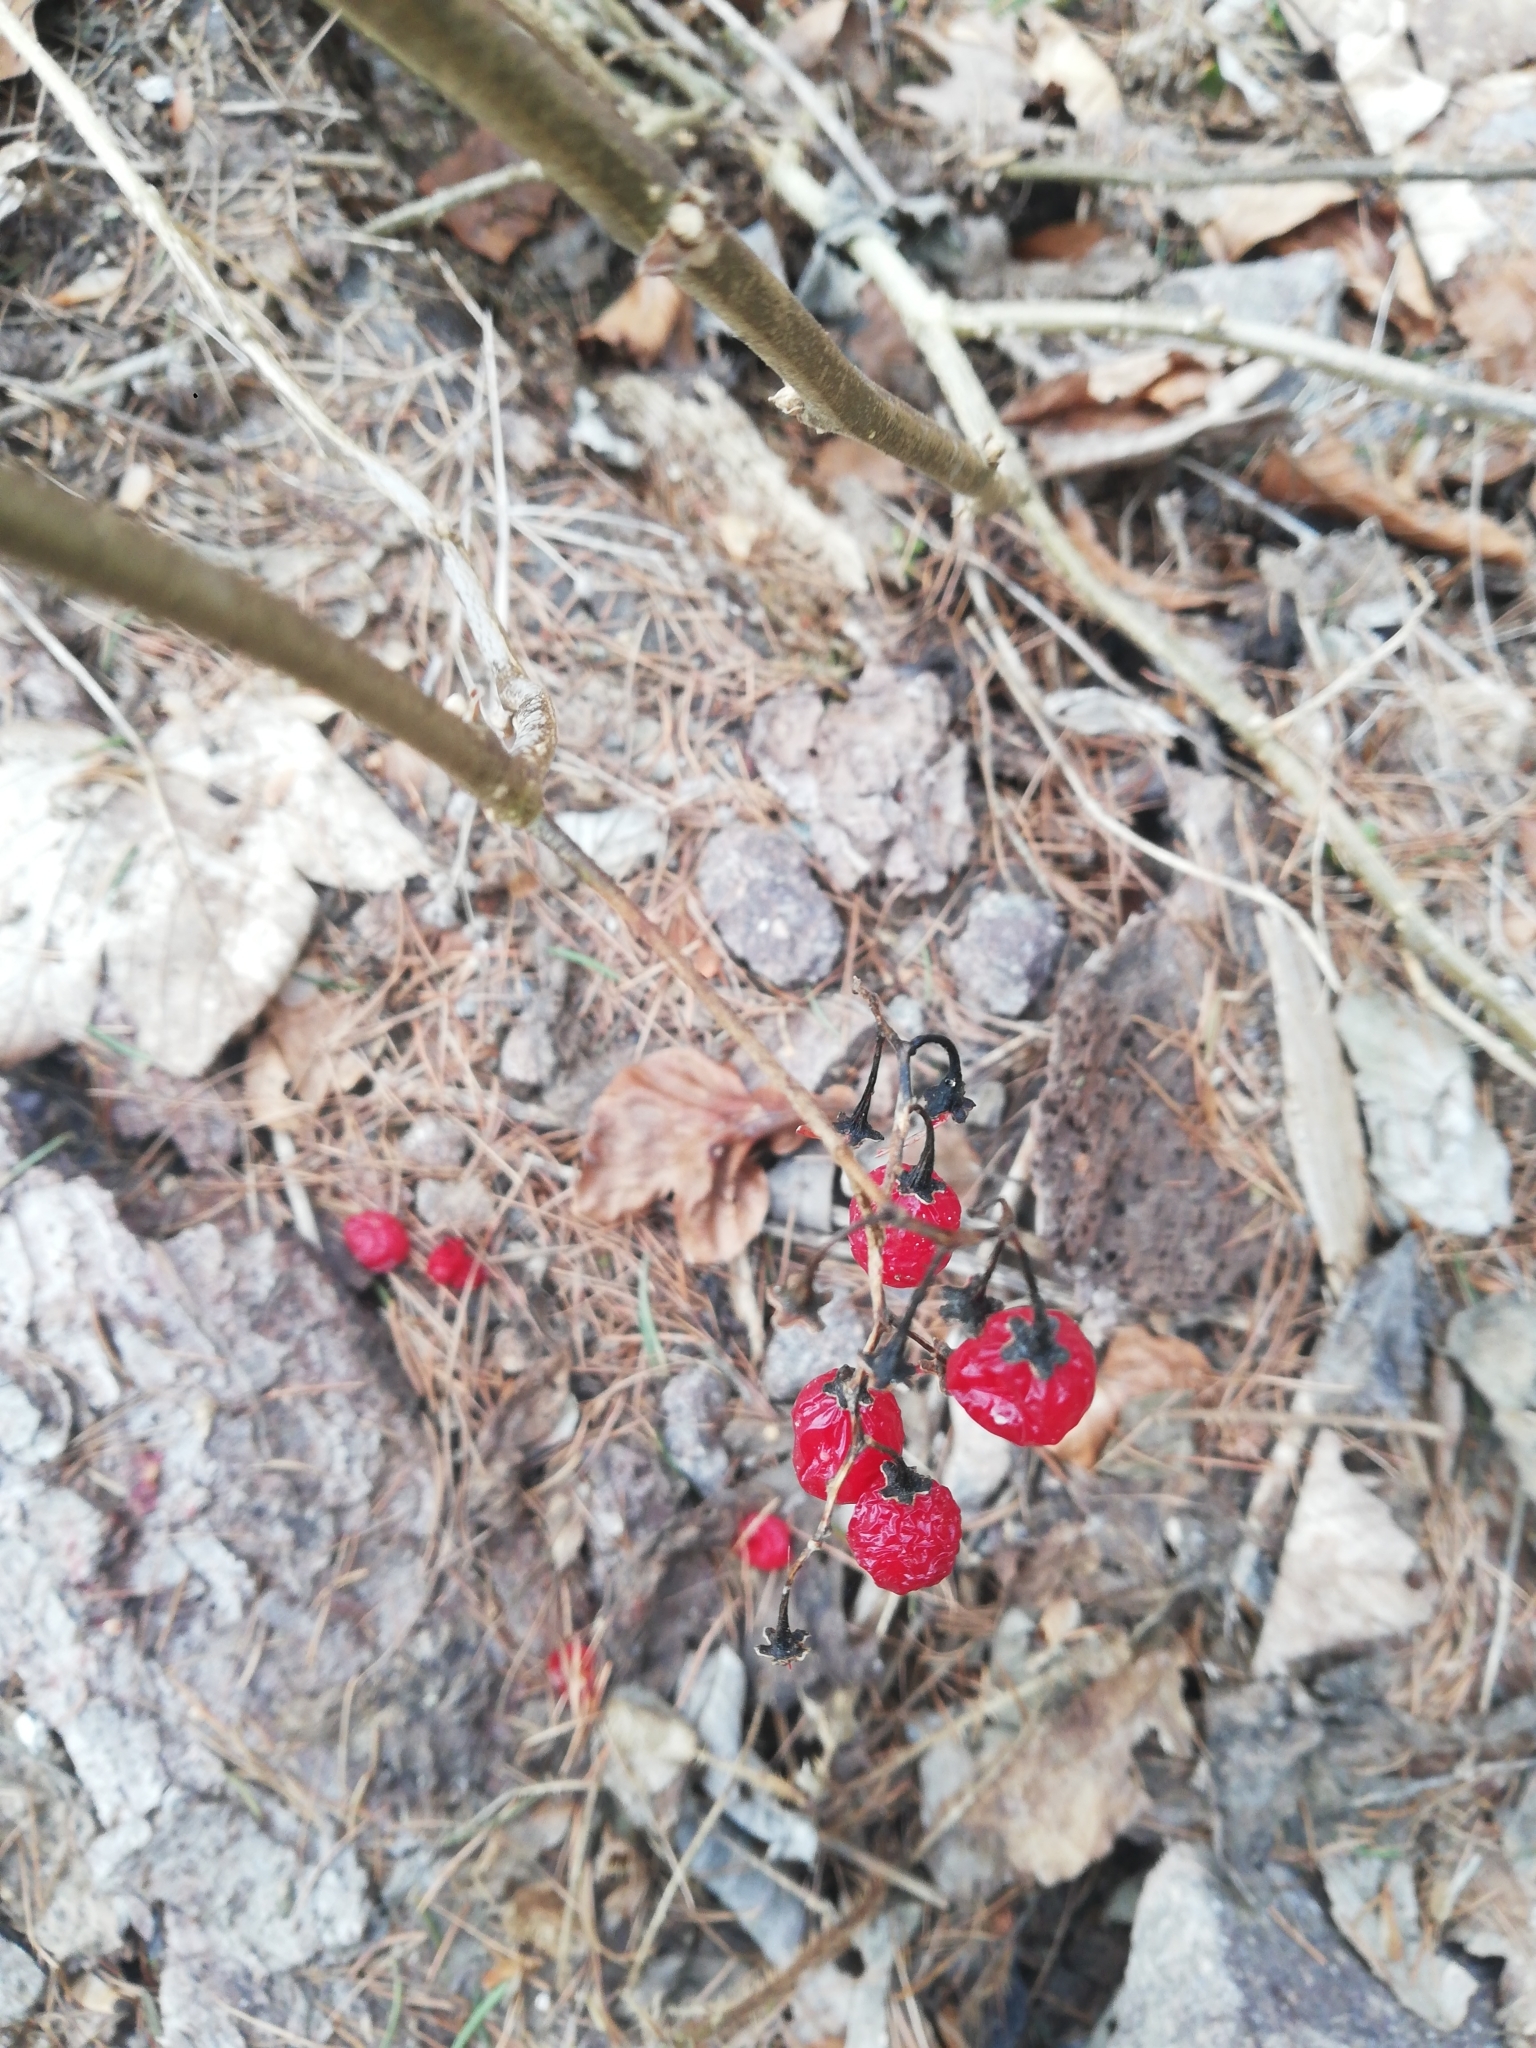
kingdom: Plantae
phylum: Tracheophyta
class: Magnoliopsida
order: Solanales
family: Solanaceae
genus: Solanum
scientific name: Solanum dulcamara
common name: Climbing nightshade
